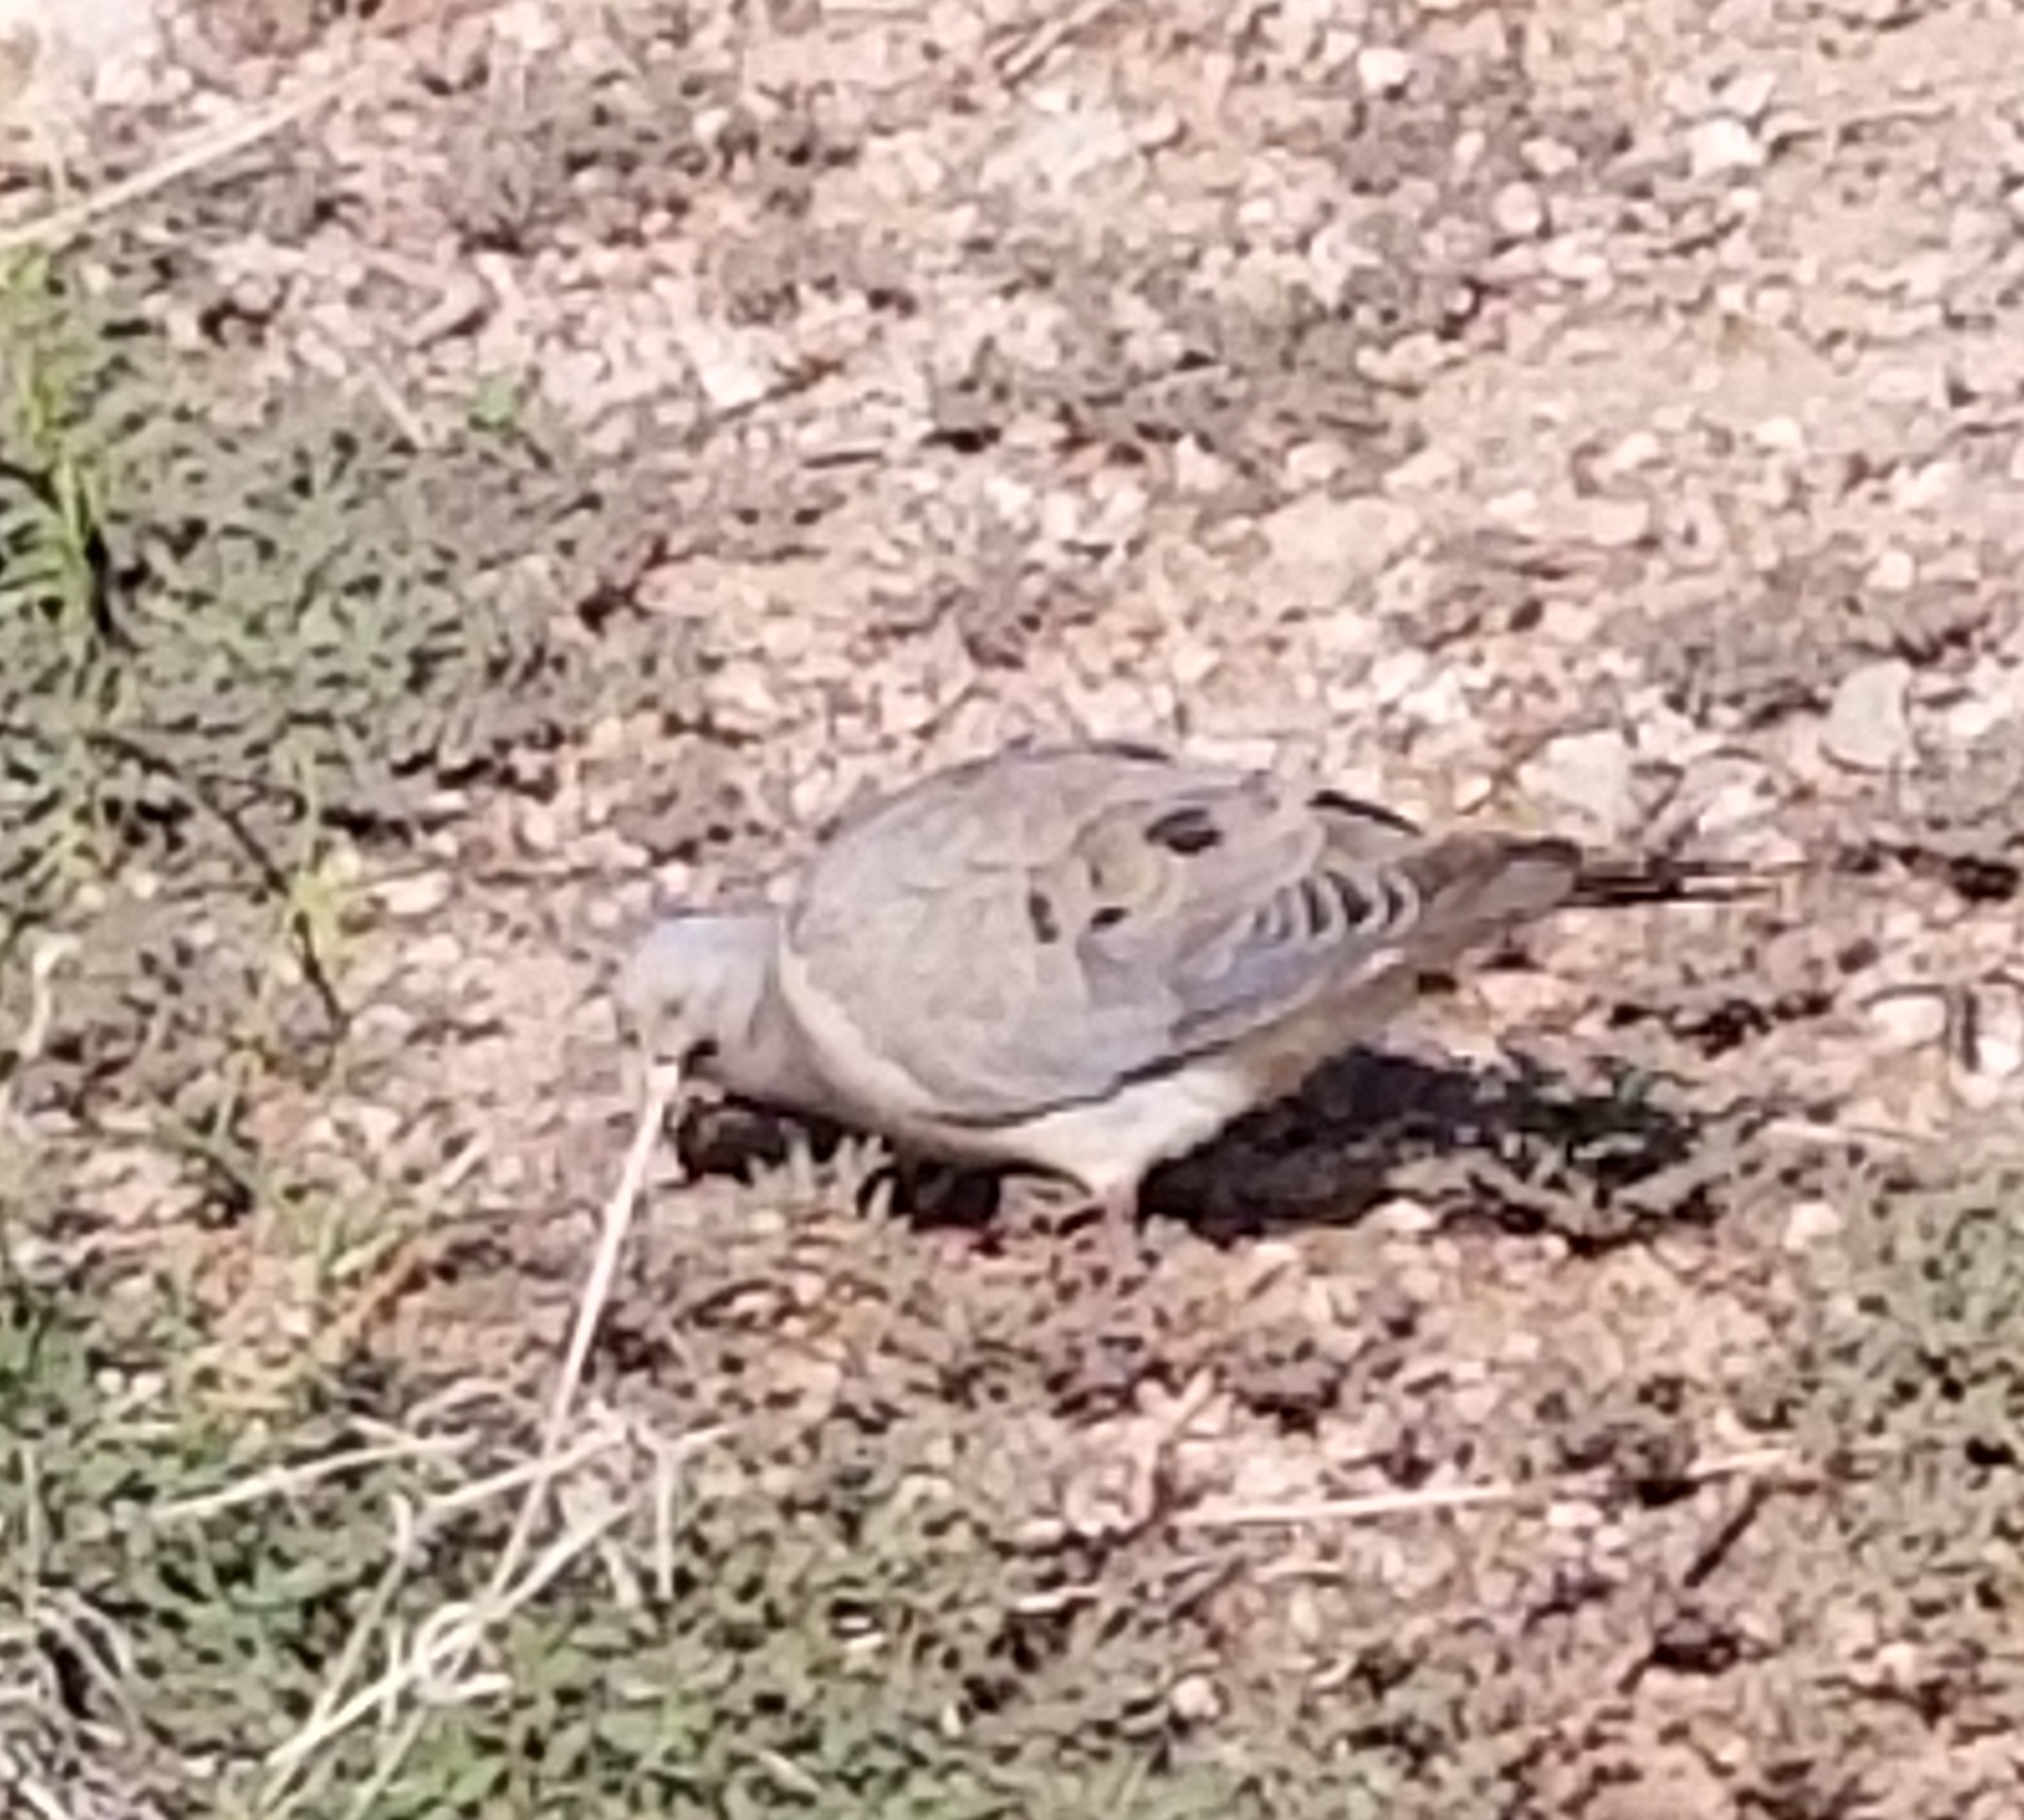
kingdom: Animalia
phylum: Chordata
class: Aves
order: Columbiformes
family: Columbidae
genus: Zenaida
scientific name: Zenaida macroura
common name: Mourning dove
